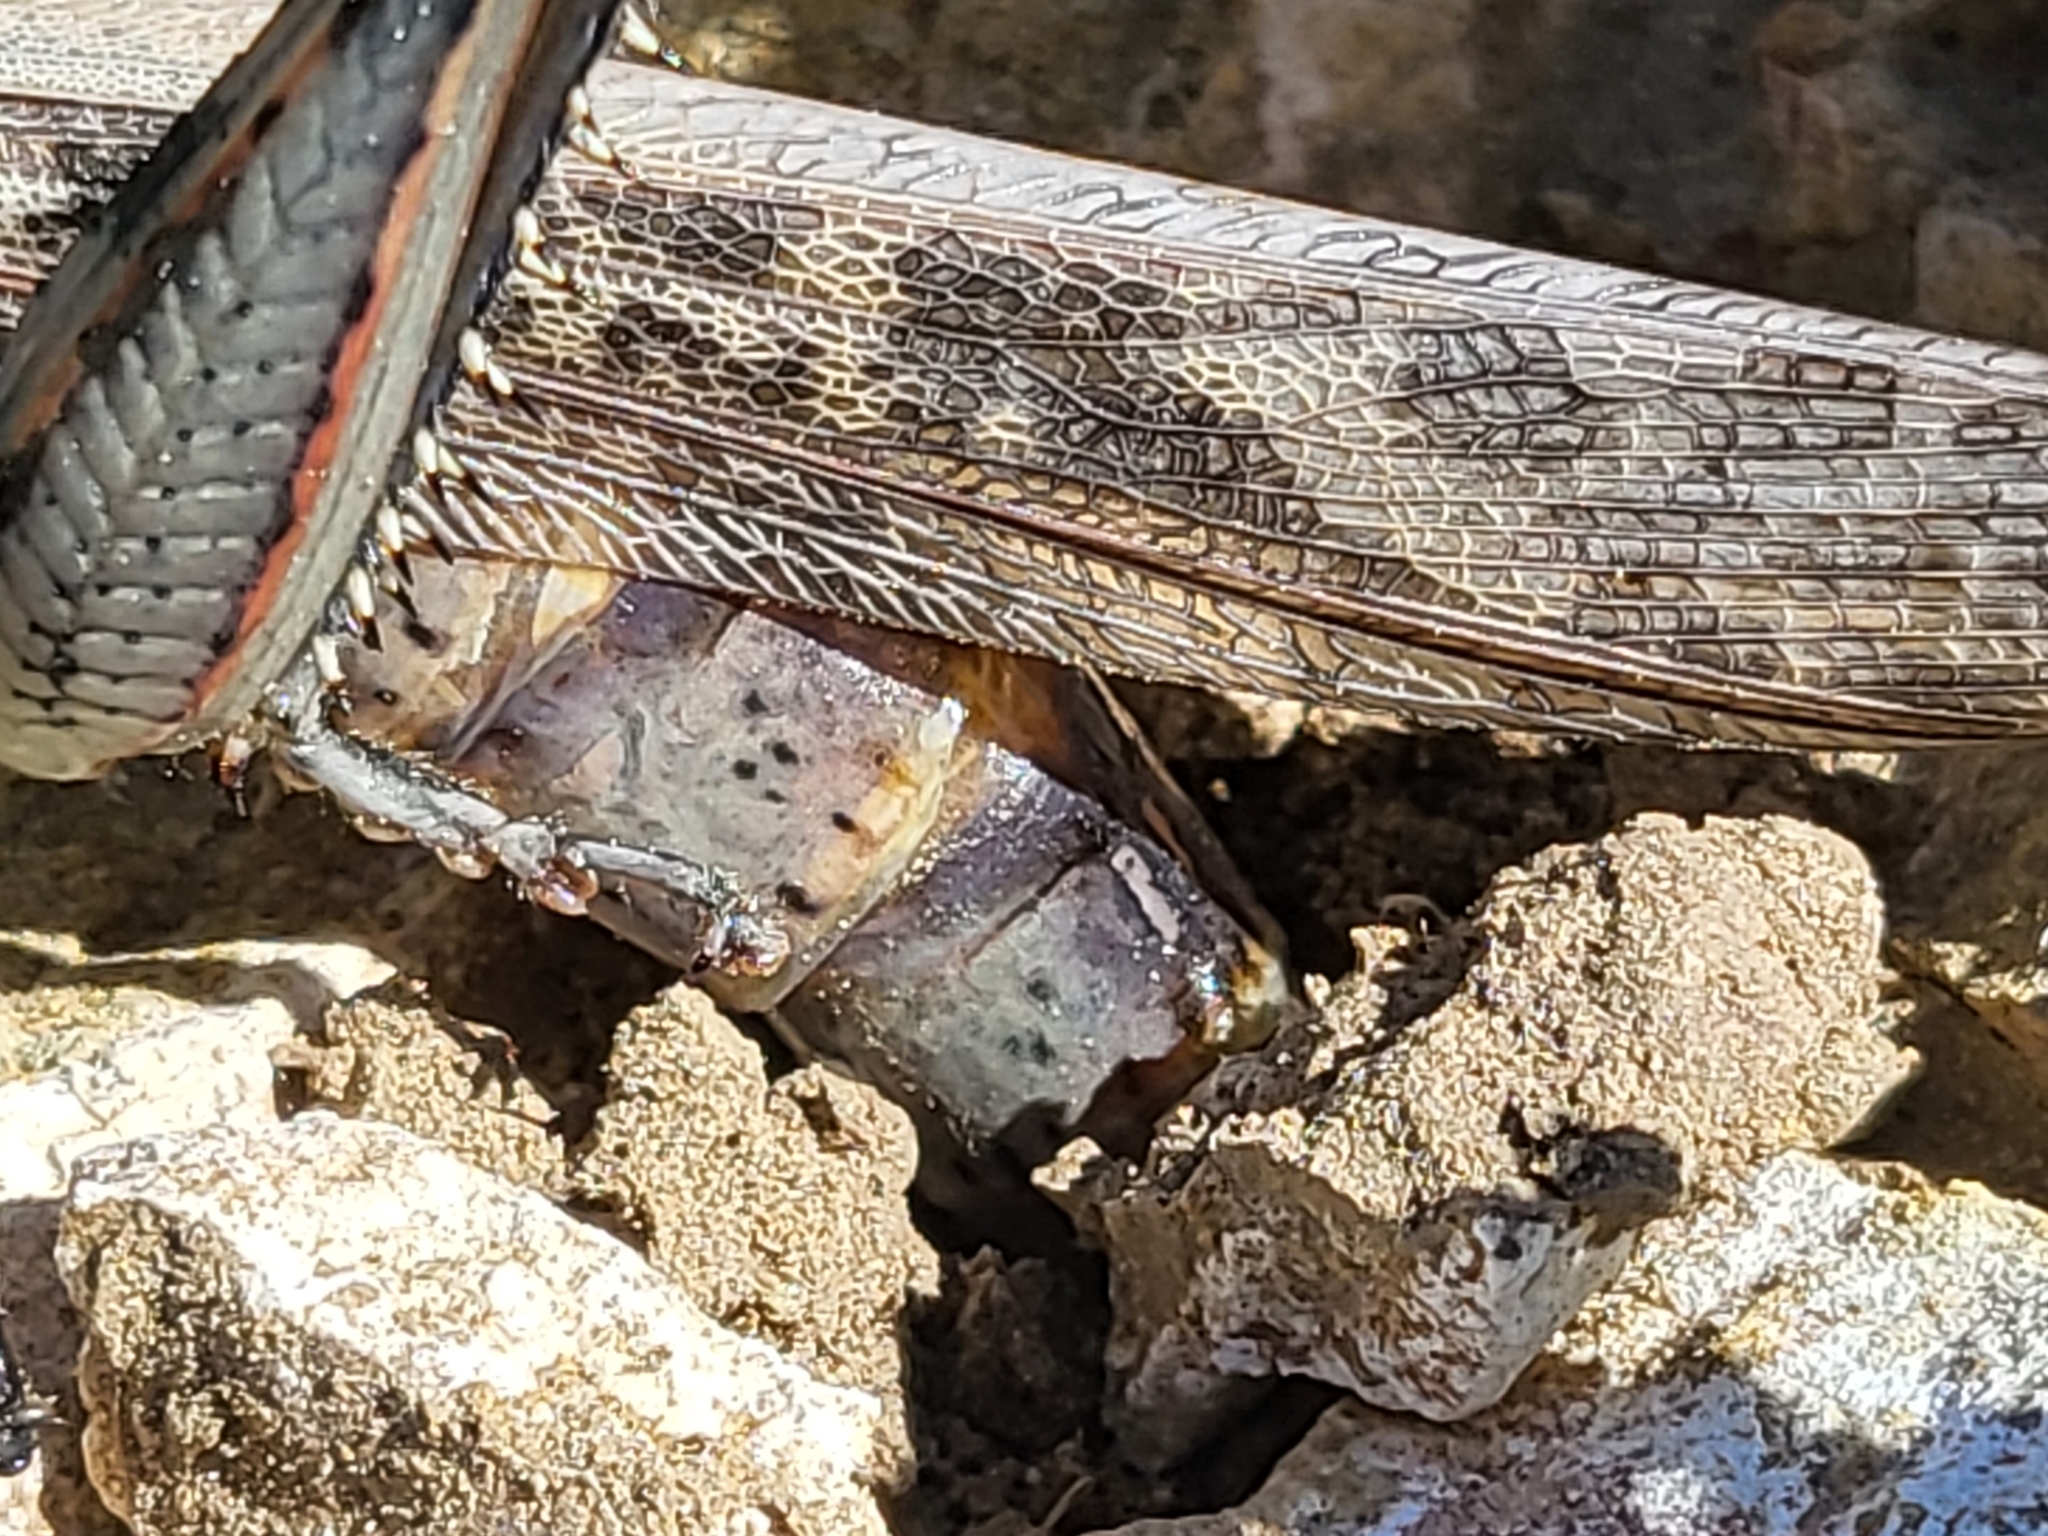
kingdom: Animalia
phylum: Arthropoda
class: Insecta
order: Orthoptera
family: Acrididae
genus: Schistocerca
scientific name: Schistocerca nitens
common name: Vagrant grasshopper
